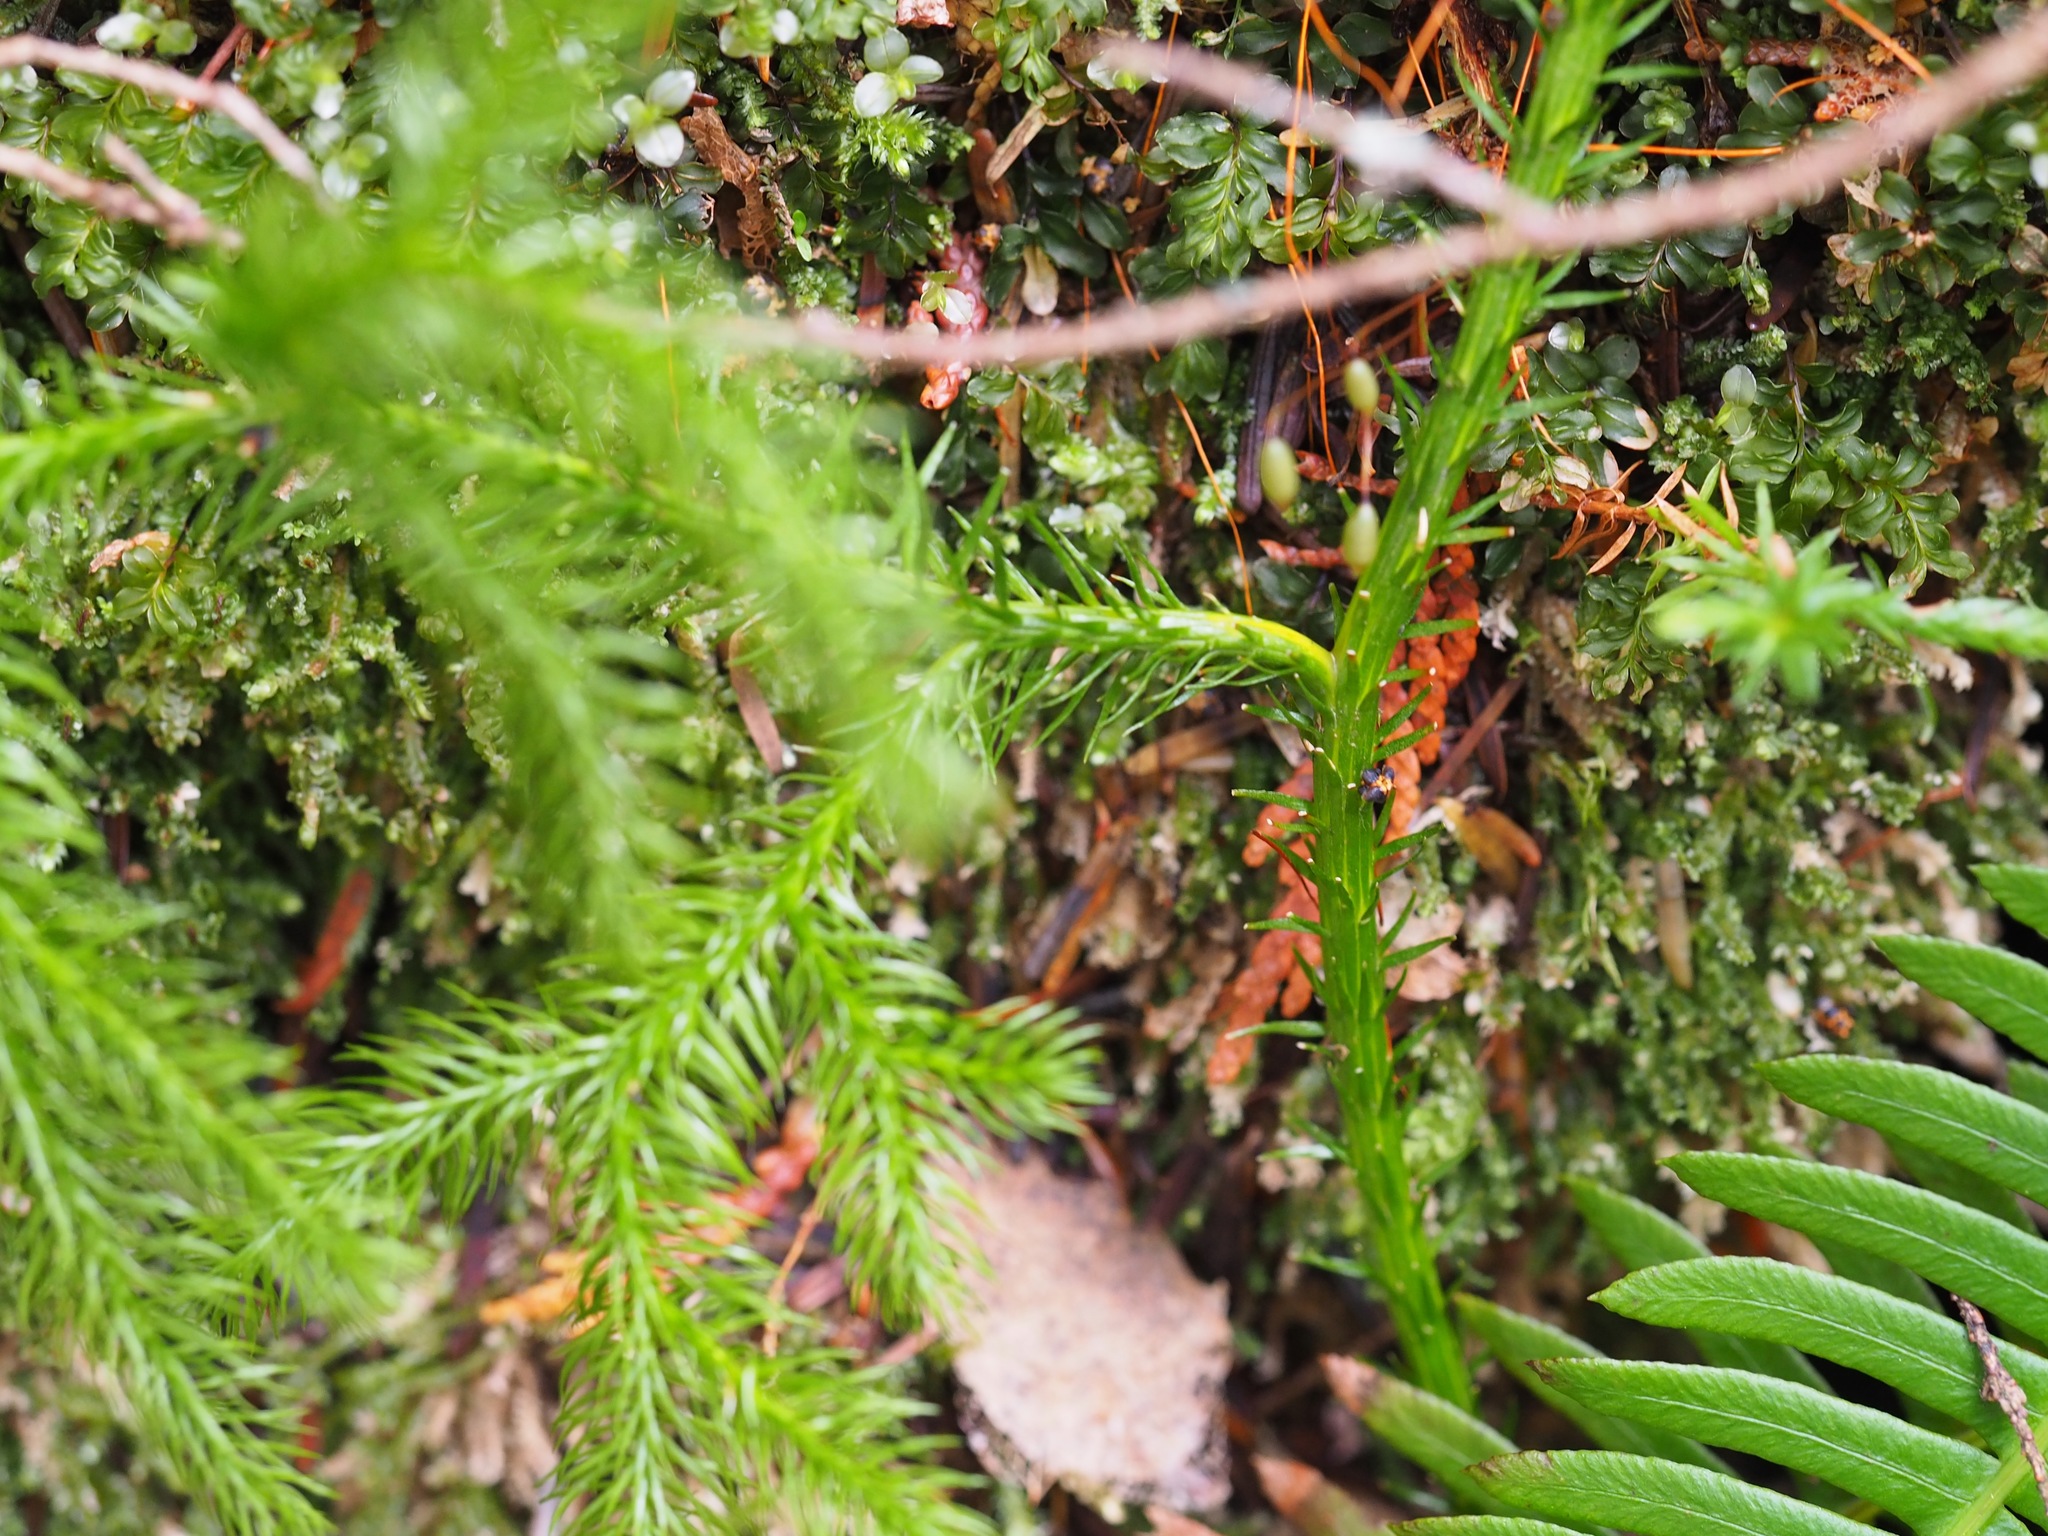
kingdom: Plantae
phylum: Tracheophyta
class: Lycopodiopsida
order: Lycopodiales
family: Lycopodiaceae
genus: Lycopodium
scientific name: Lycopodium clavatum
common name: Stag's-horn clubmoss
